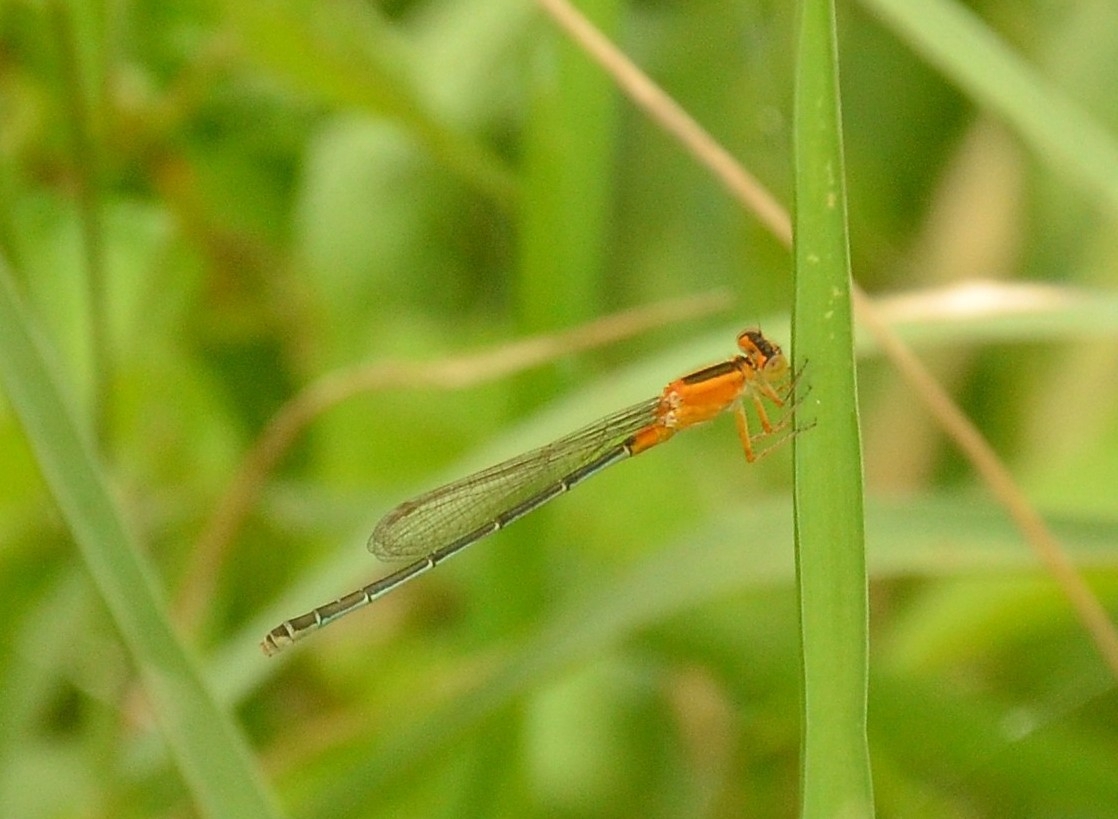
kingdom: Animalia
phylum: Arthropoda
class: Insecta
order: Odonata
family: Coenagrionidae
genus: Ischnura
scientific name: Ischnura senegalensis
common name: Tropical bluetail
